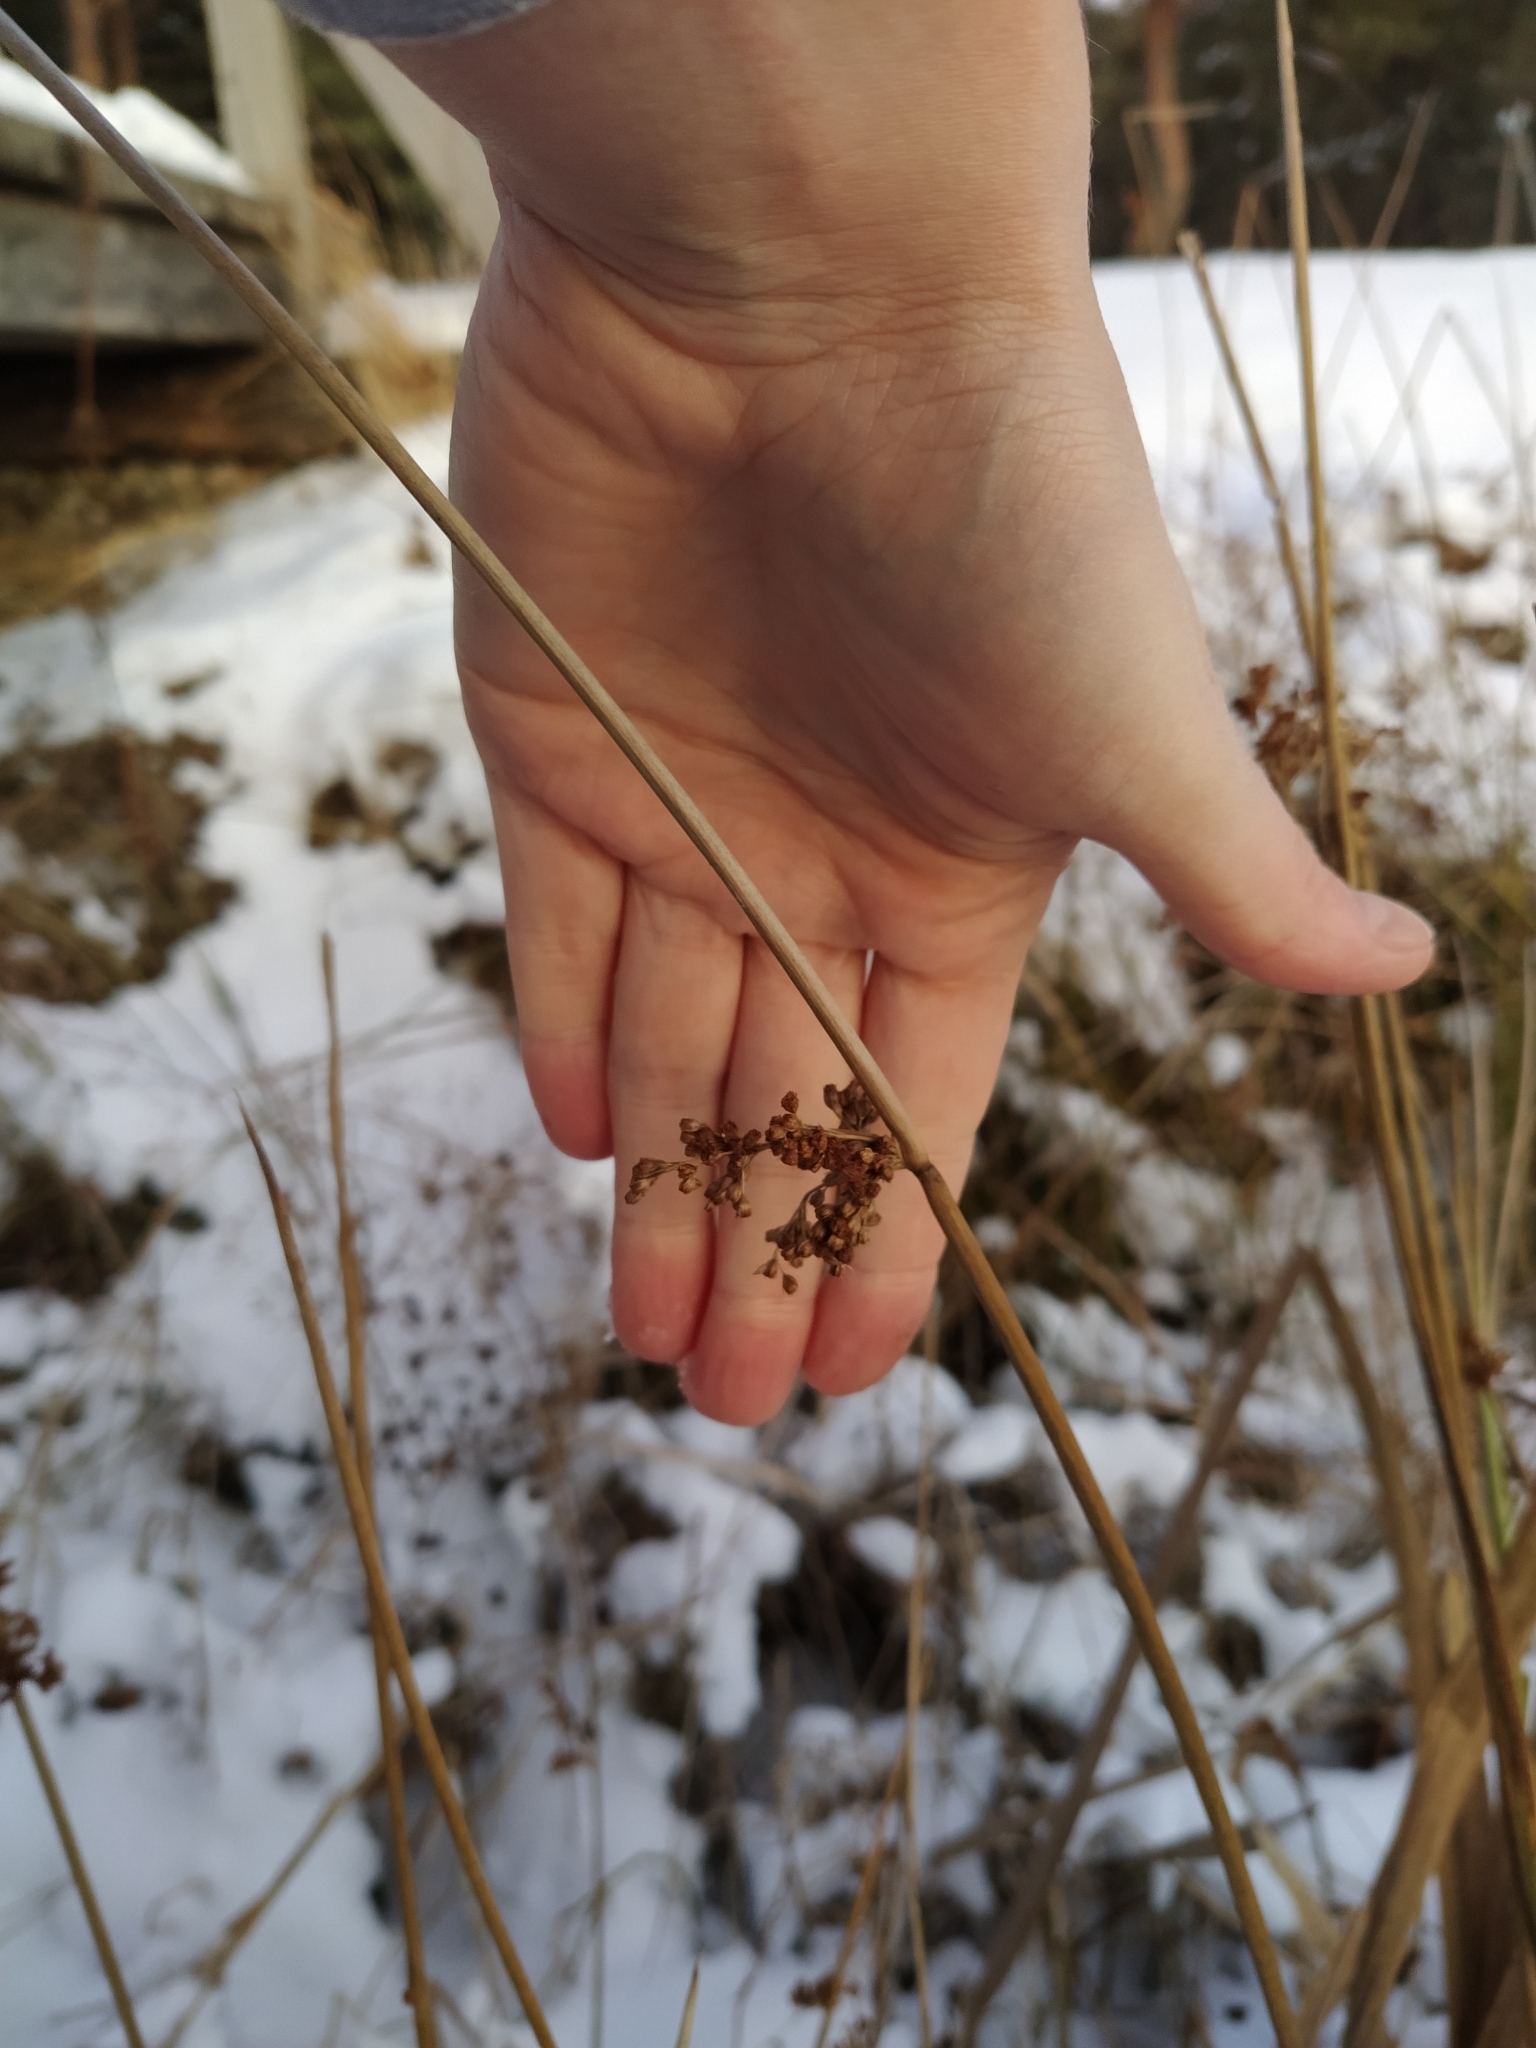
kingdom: Plantae
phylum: Tracheophyta
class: Liliopsida
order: Poales
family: Juncaceae
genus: Juncus
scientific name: Juncus effusus
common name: Soft rush
